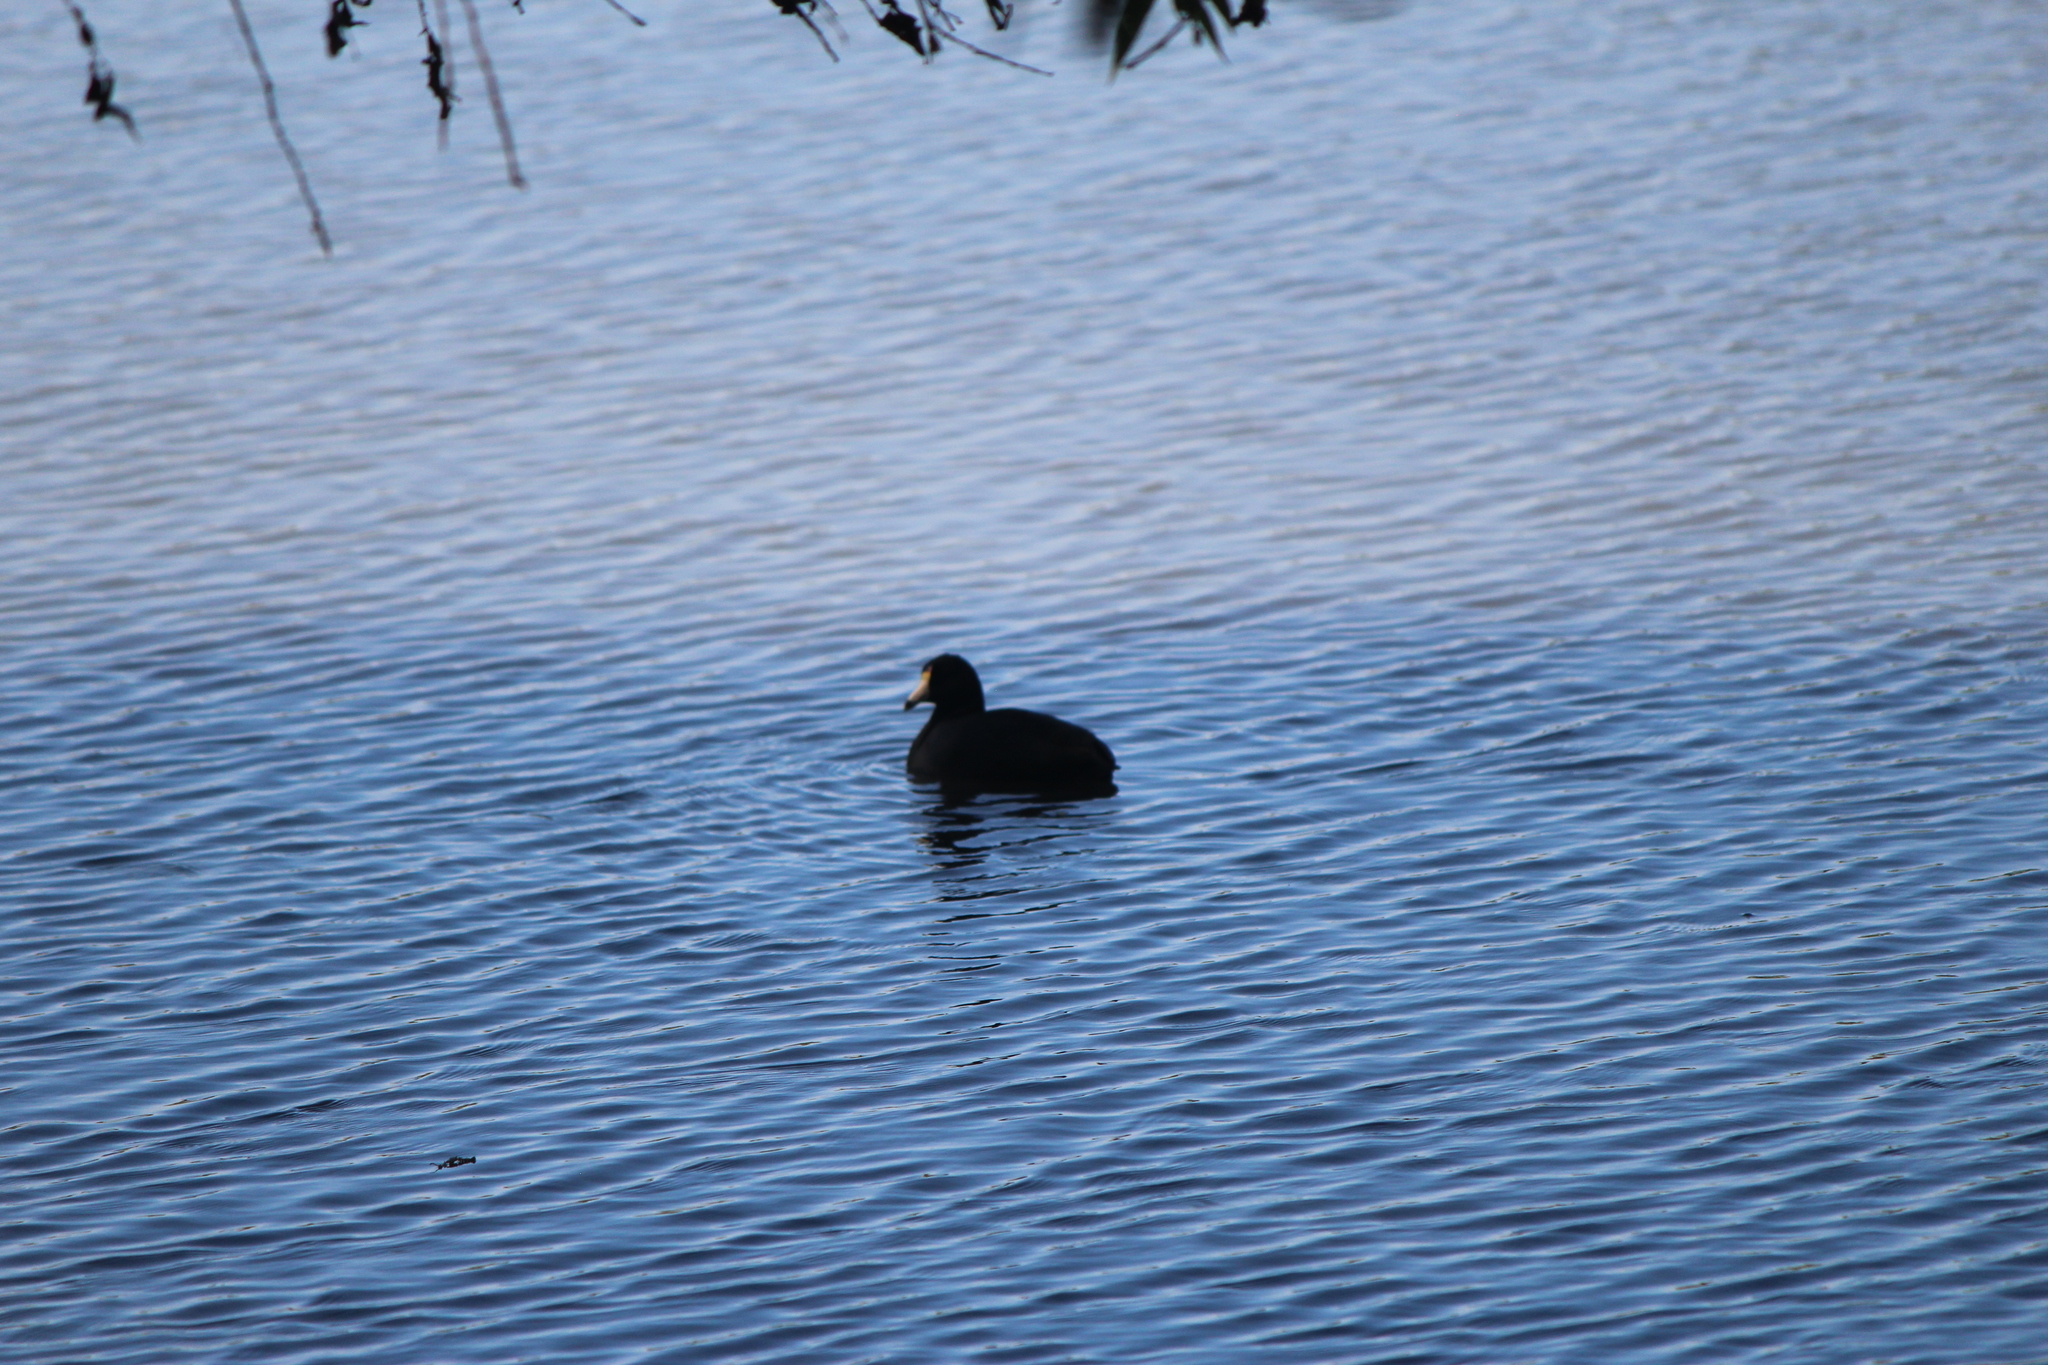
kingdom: Animalia
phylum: Chordata
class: Aves
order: Gruiformes
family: Rallidae
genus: Fulica
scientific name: Fulica americana
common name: American coot
